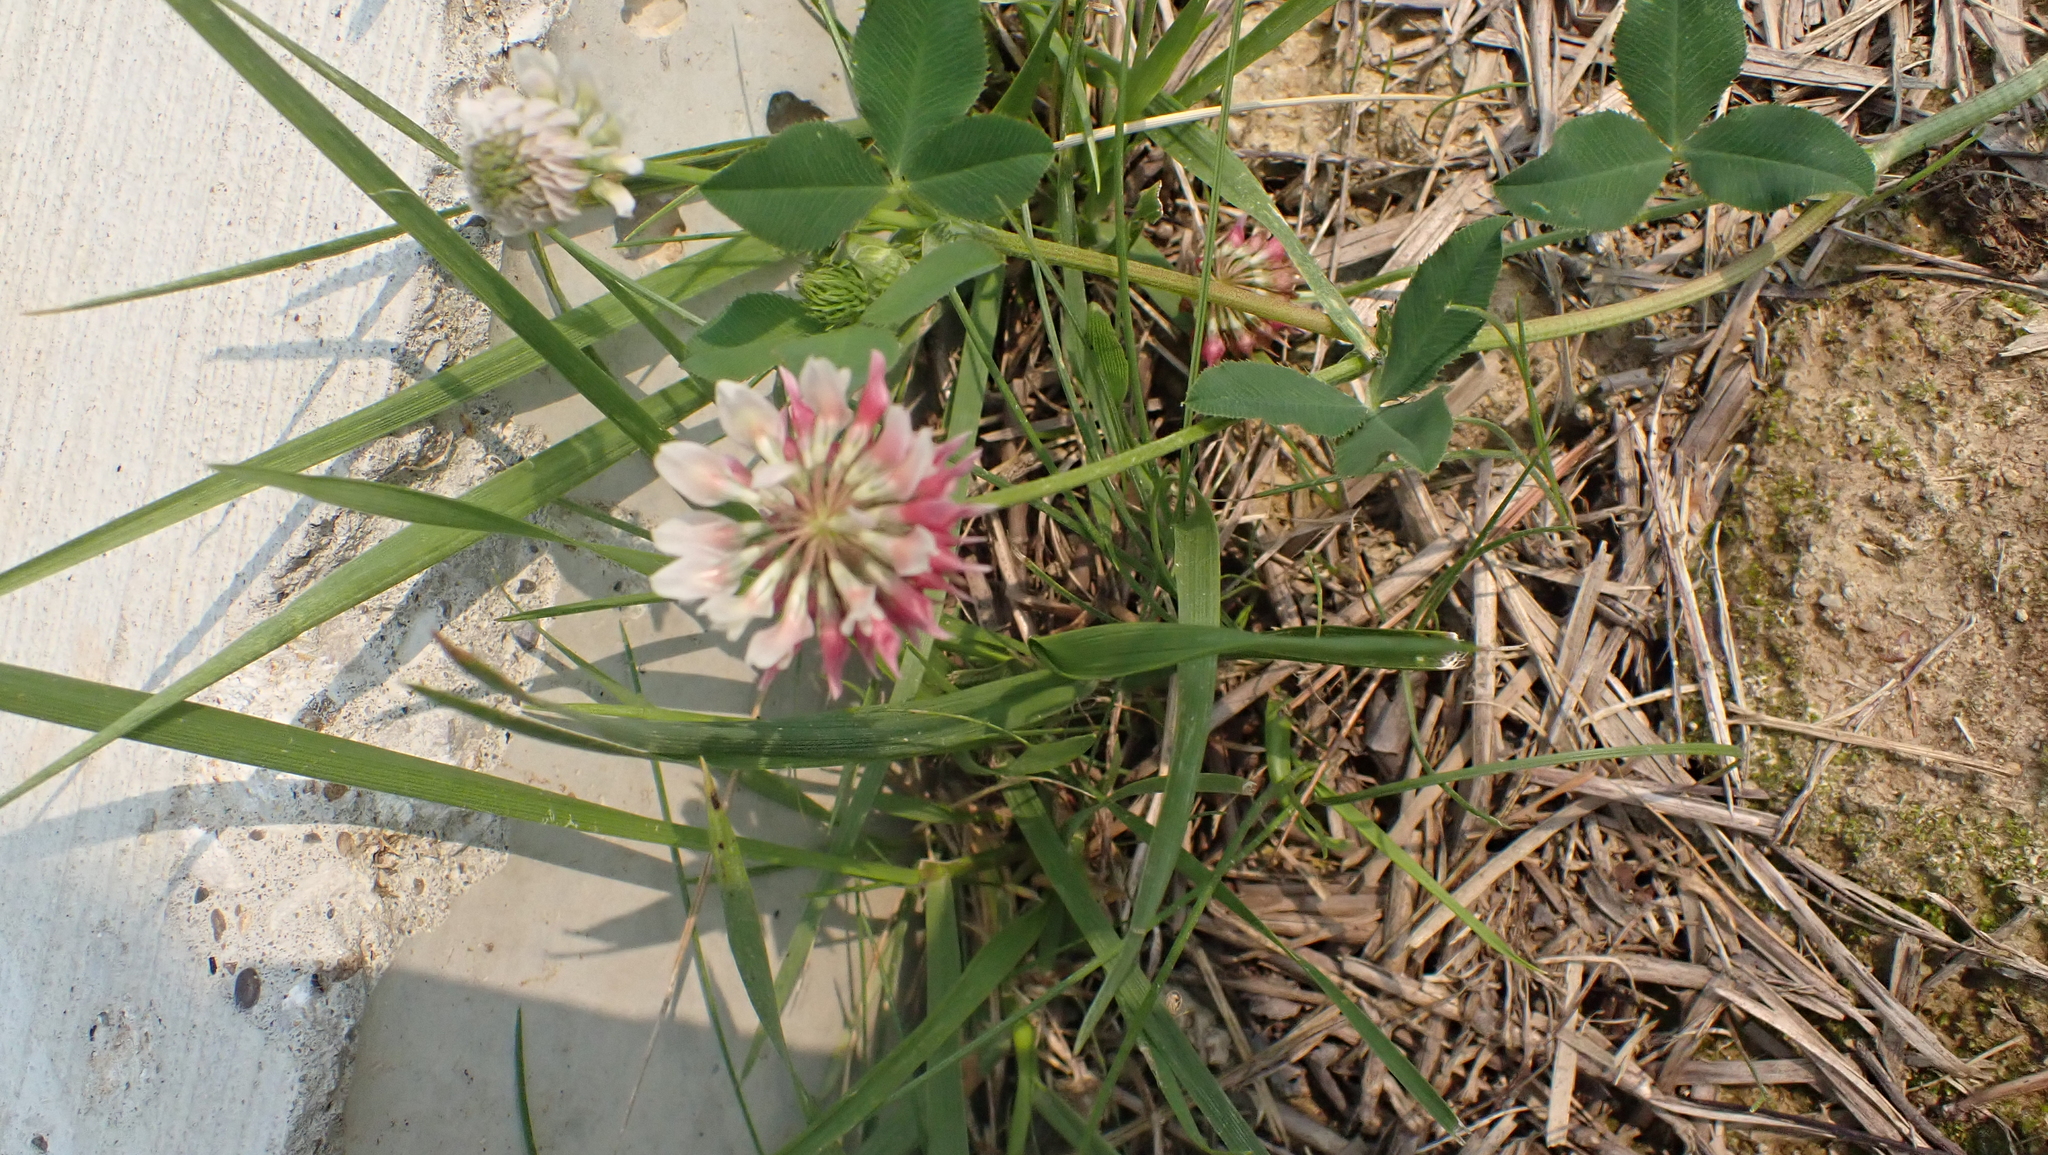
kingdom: Plantae
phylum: Tracheophyta
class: Magnoliopsida
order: Fabales
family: Fabaceae
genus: Trifolium
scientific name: Trifolium hybridum
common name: Alsike clover
